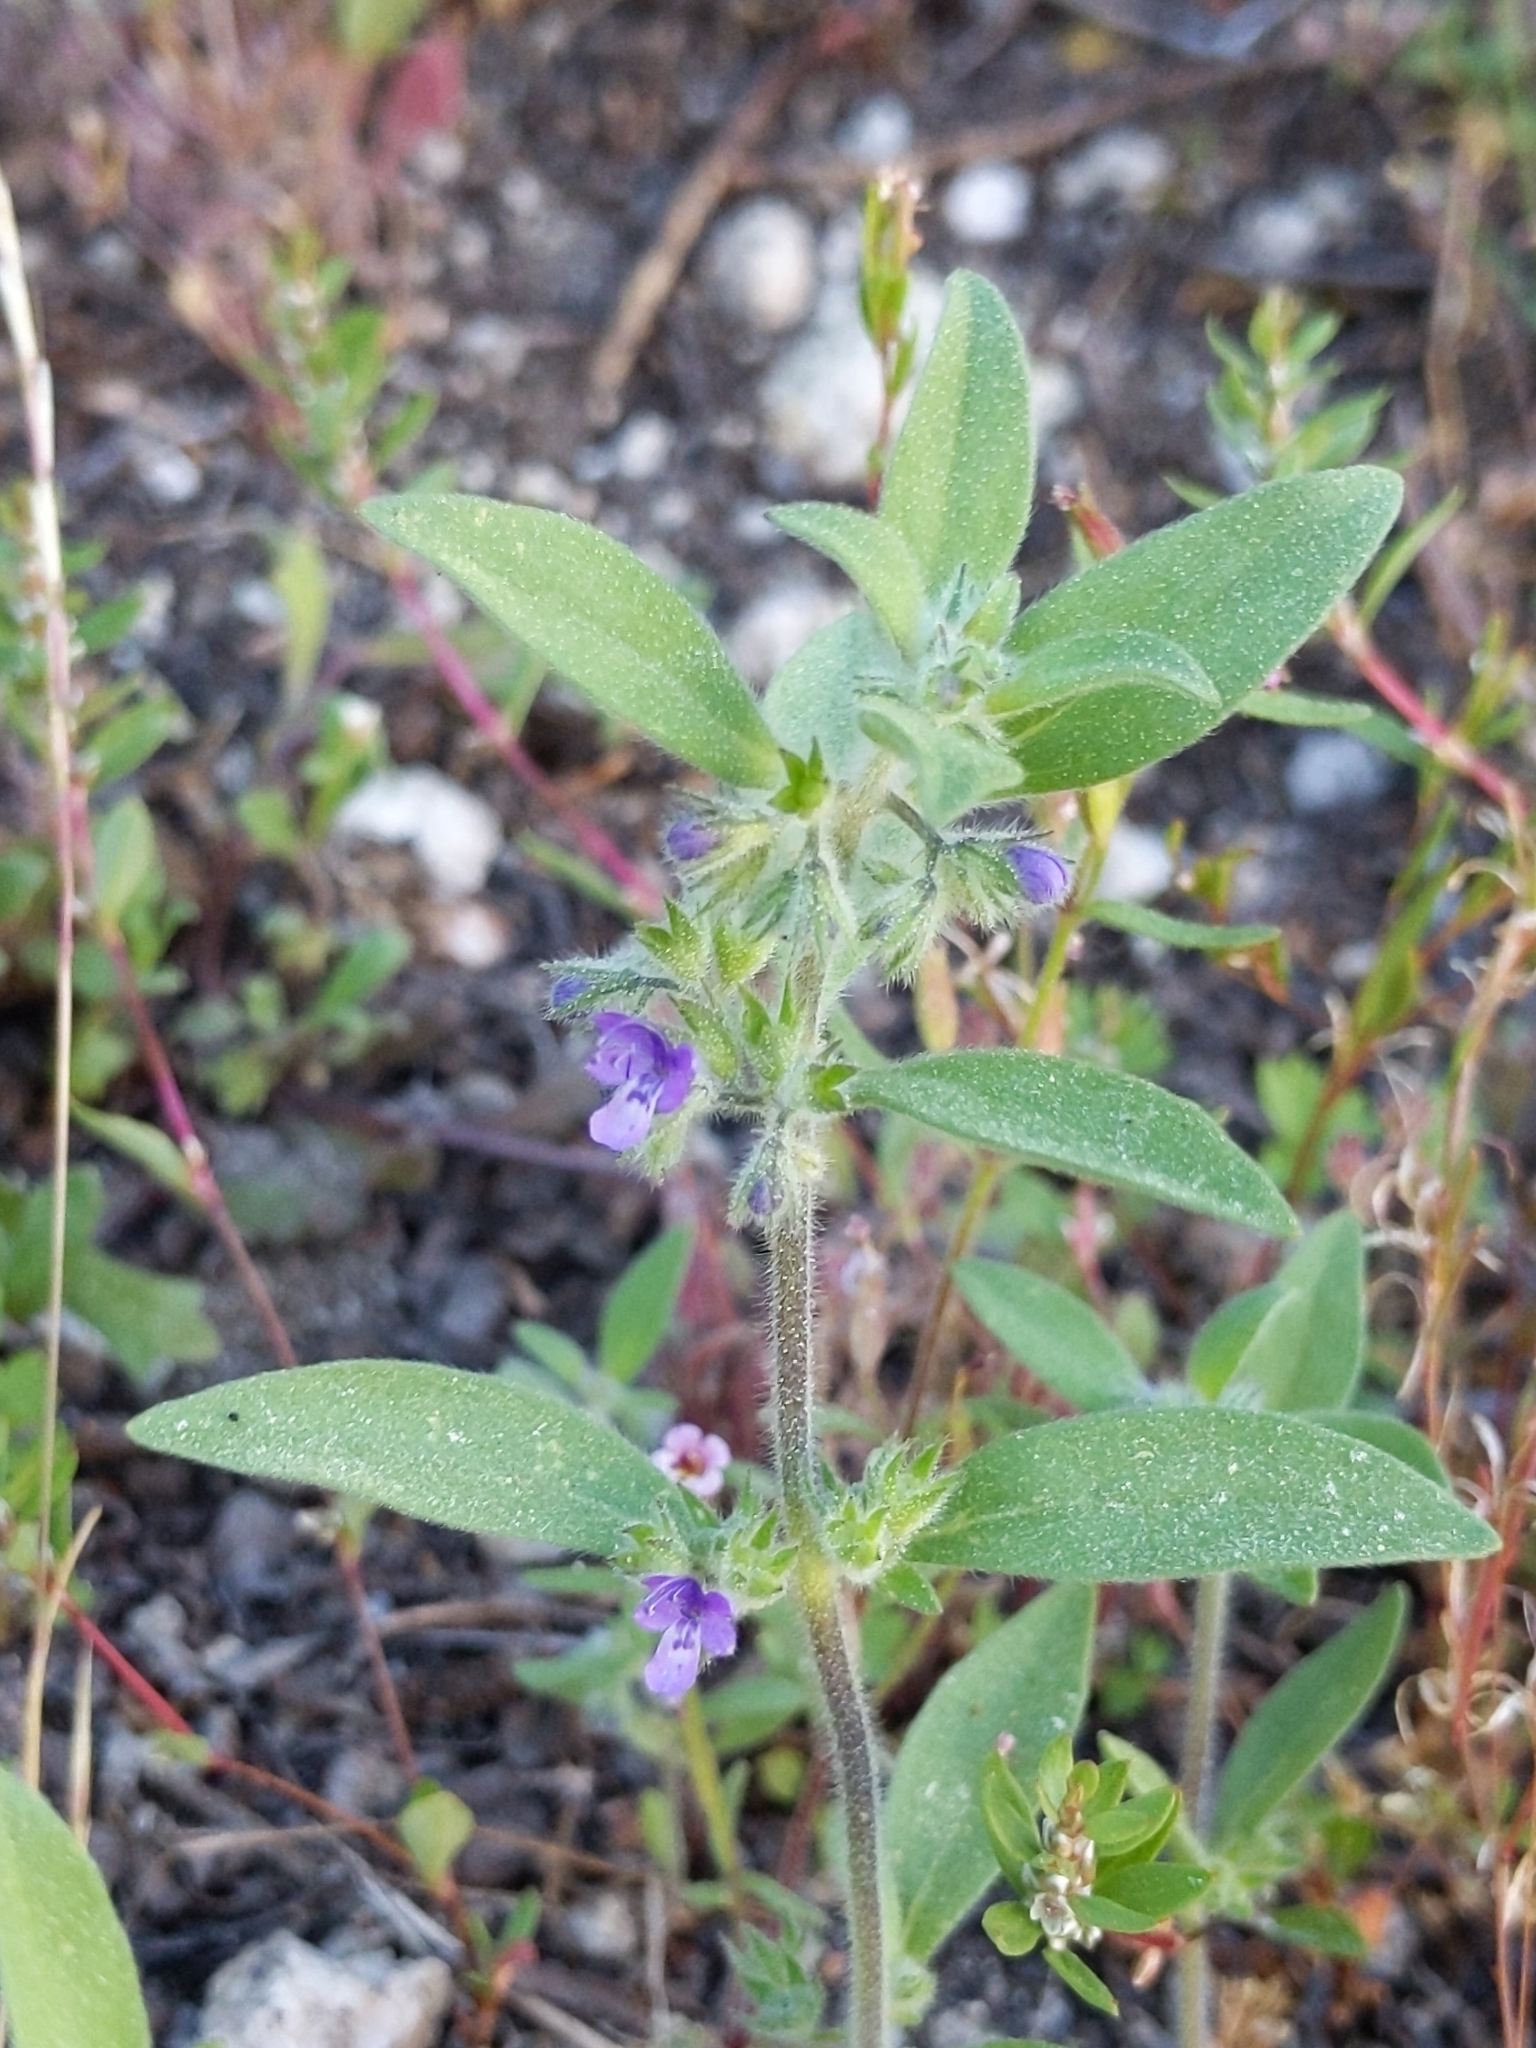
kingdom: Plantae
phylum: Tracheophyta
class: Magnoliopsida
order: Lamiales
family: Lamiaceae
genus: Trichostema
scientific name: Trichostema austromontanum
